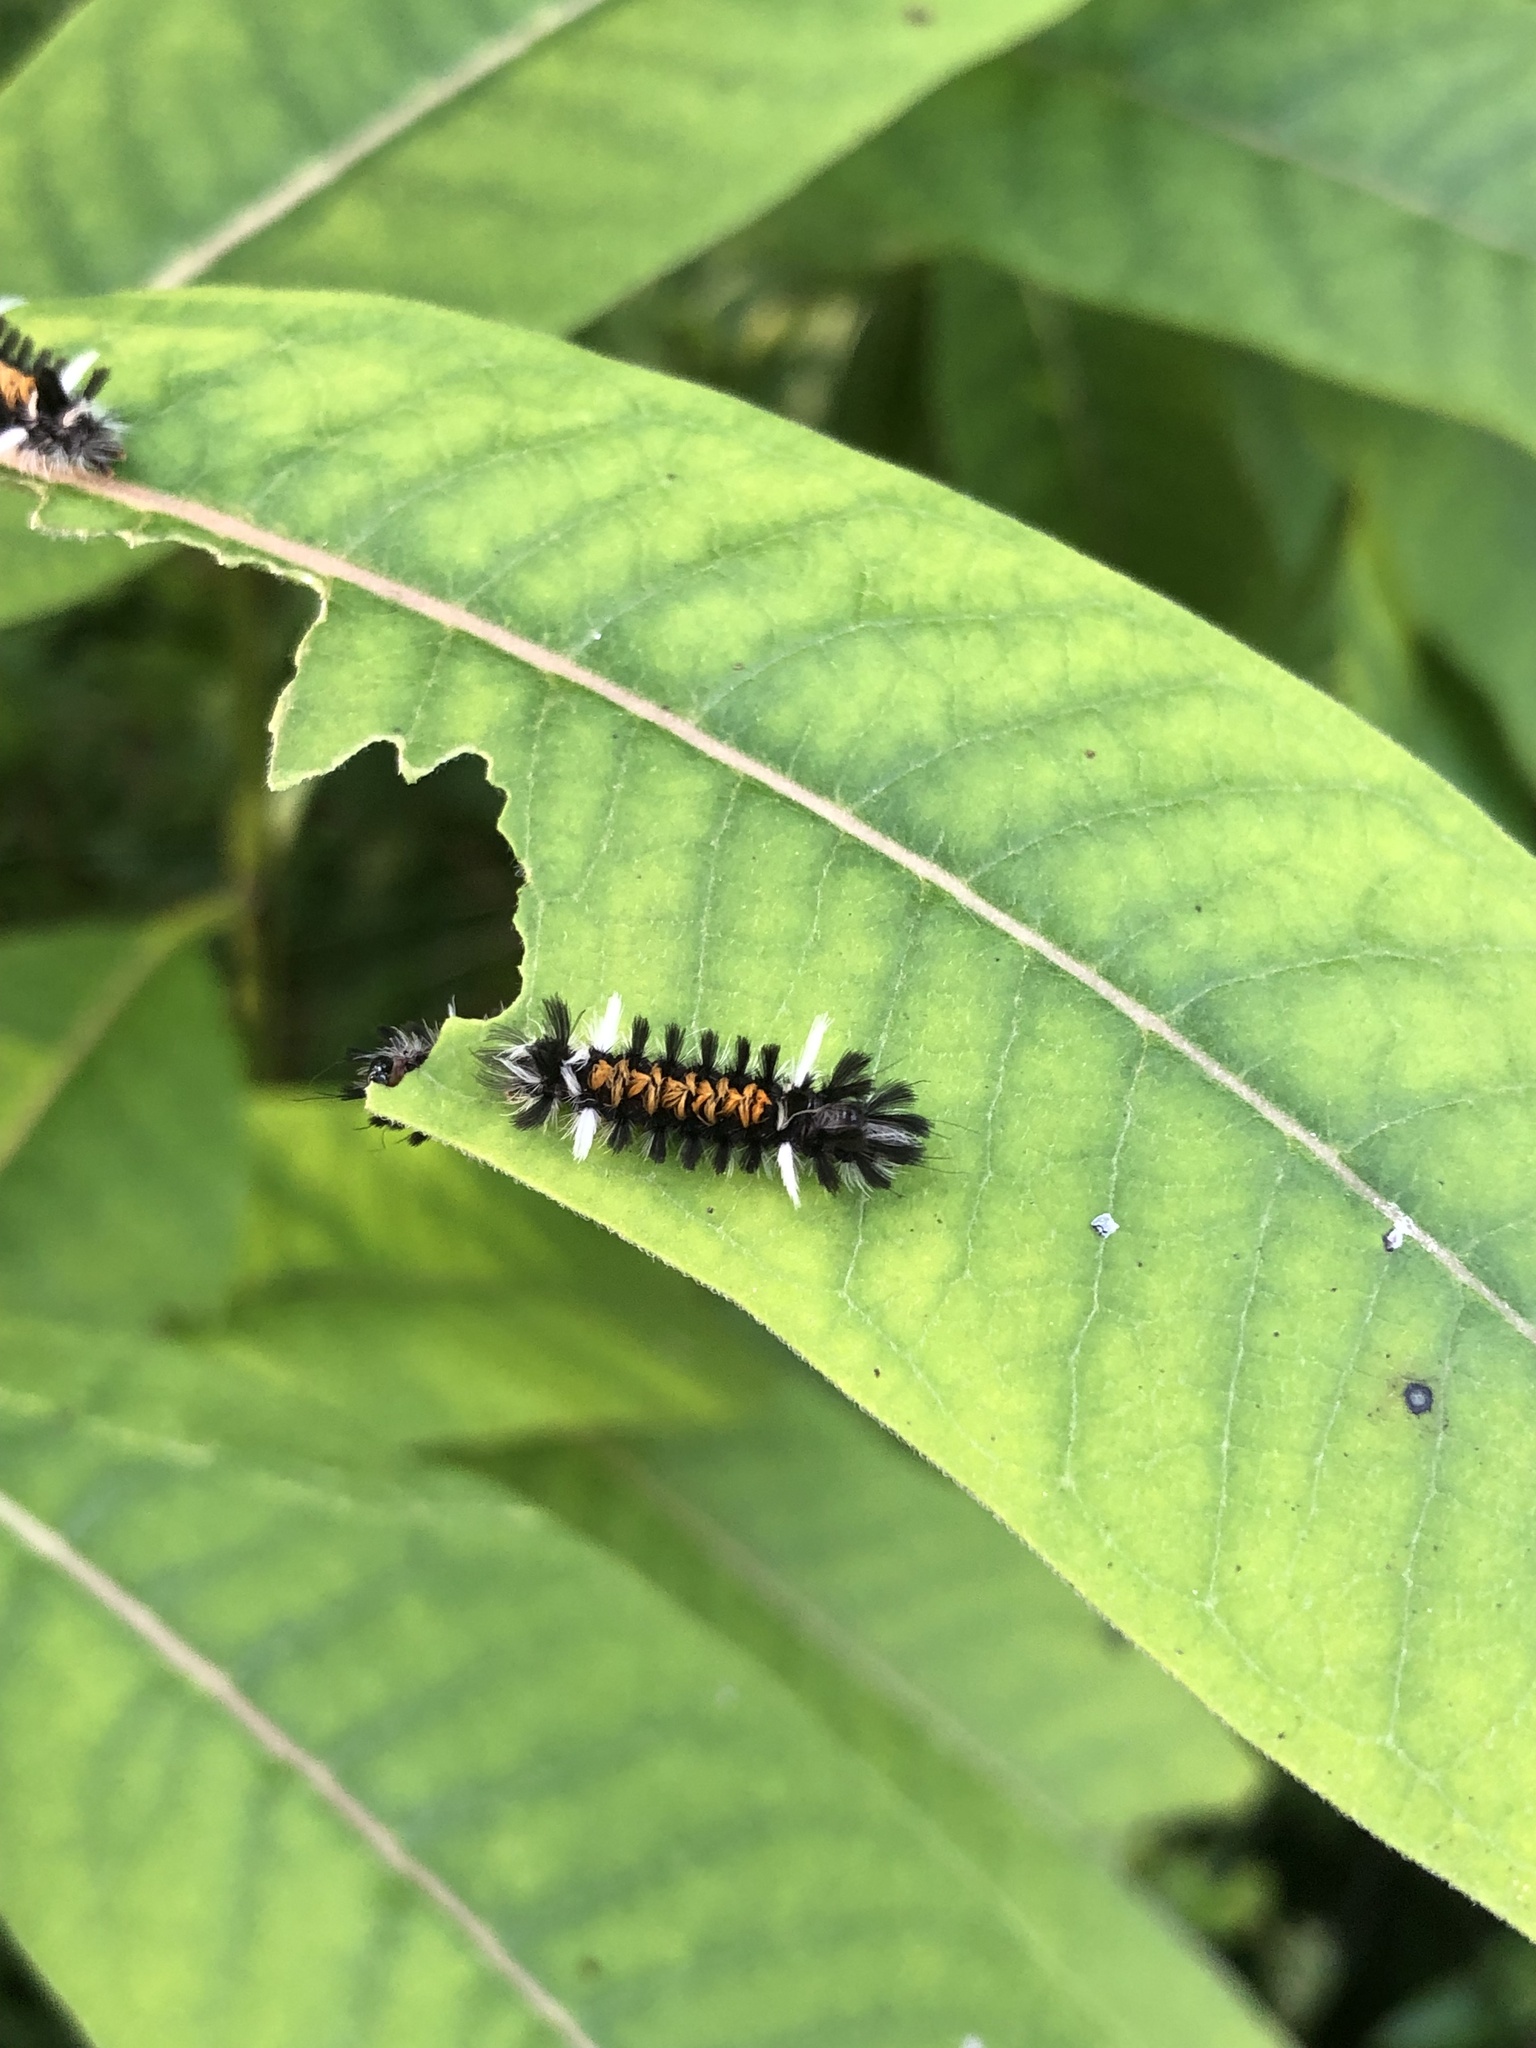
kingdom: Animalia
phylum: Arthropoda
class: Insecta
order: Lepidoptera
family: Erebidae
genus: Euchaetes
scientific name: Euchaetes egle
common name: Milkweed tussock moth
